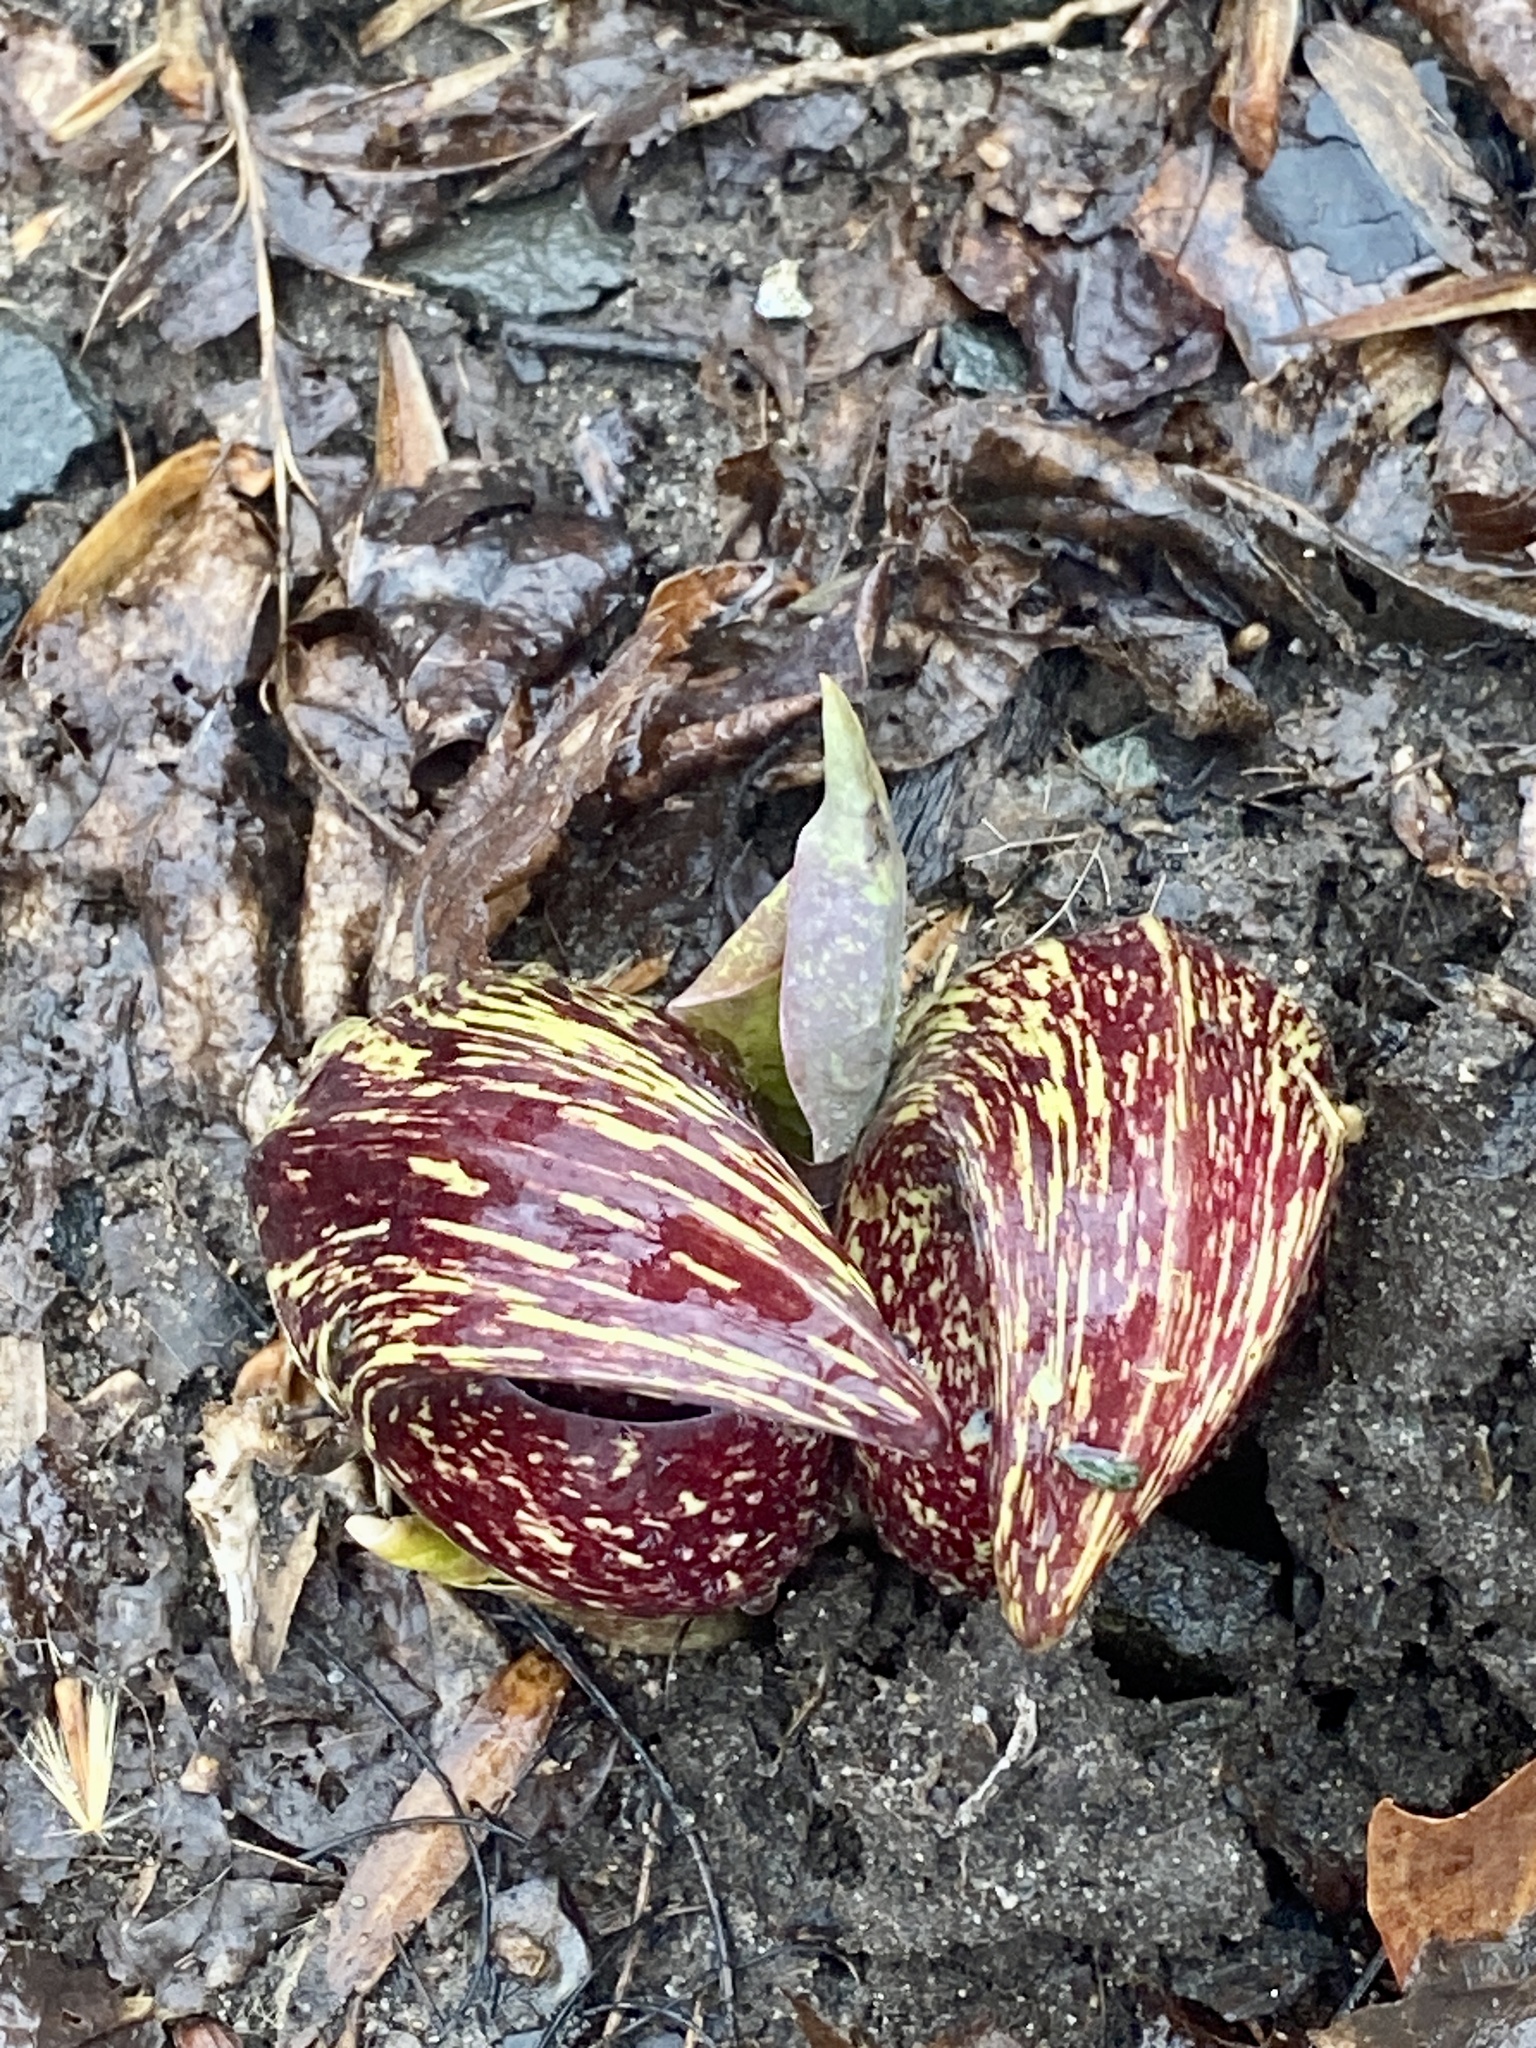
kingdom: Plantae
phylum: Tracheophyta
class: Liliopsida
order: Alismatales
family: Araceae
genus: Symplocarpus
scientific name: Symplocarpus foetidus
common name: Eastern skunk cabbage
